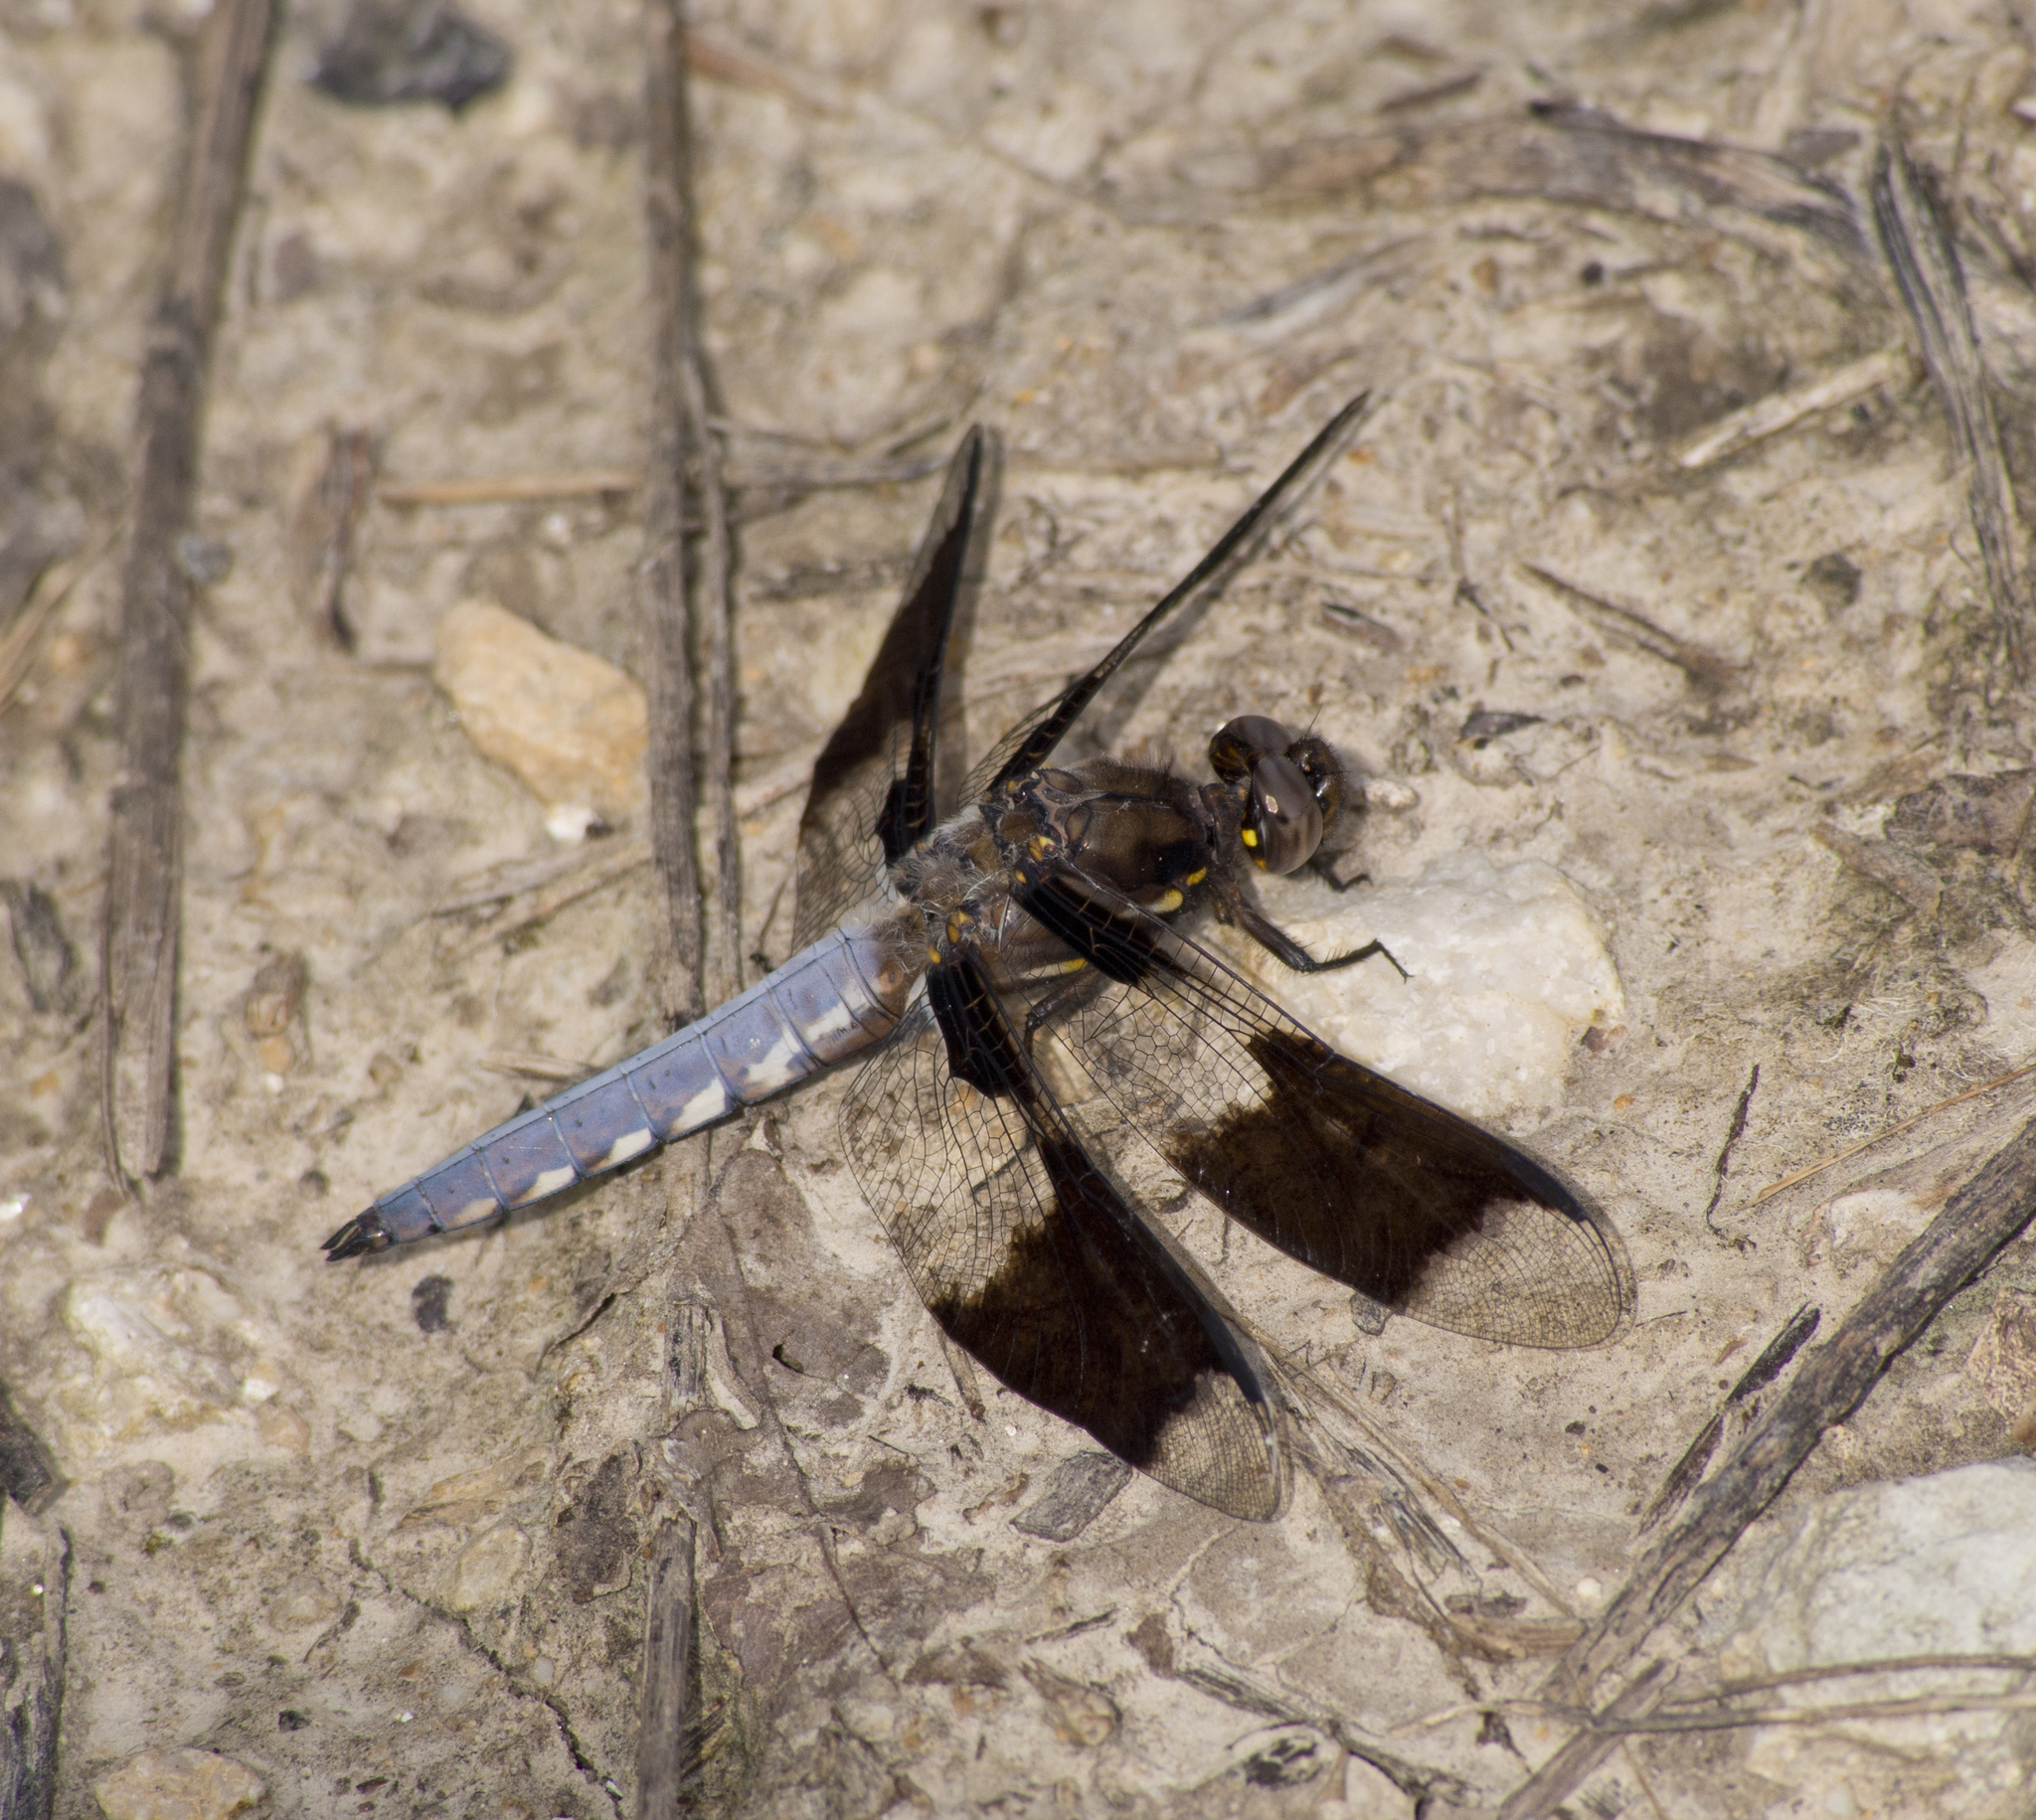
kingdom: Animalia
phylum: Arthropoda
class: Insecta
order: Odonata
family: Libellulidae
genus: Plathemis
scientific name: Plathemis lydia
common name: Common whitetail
